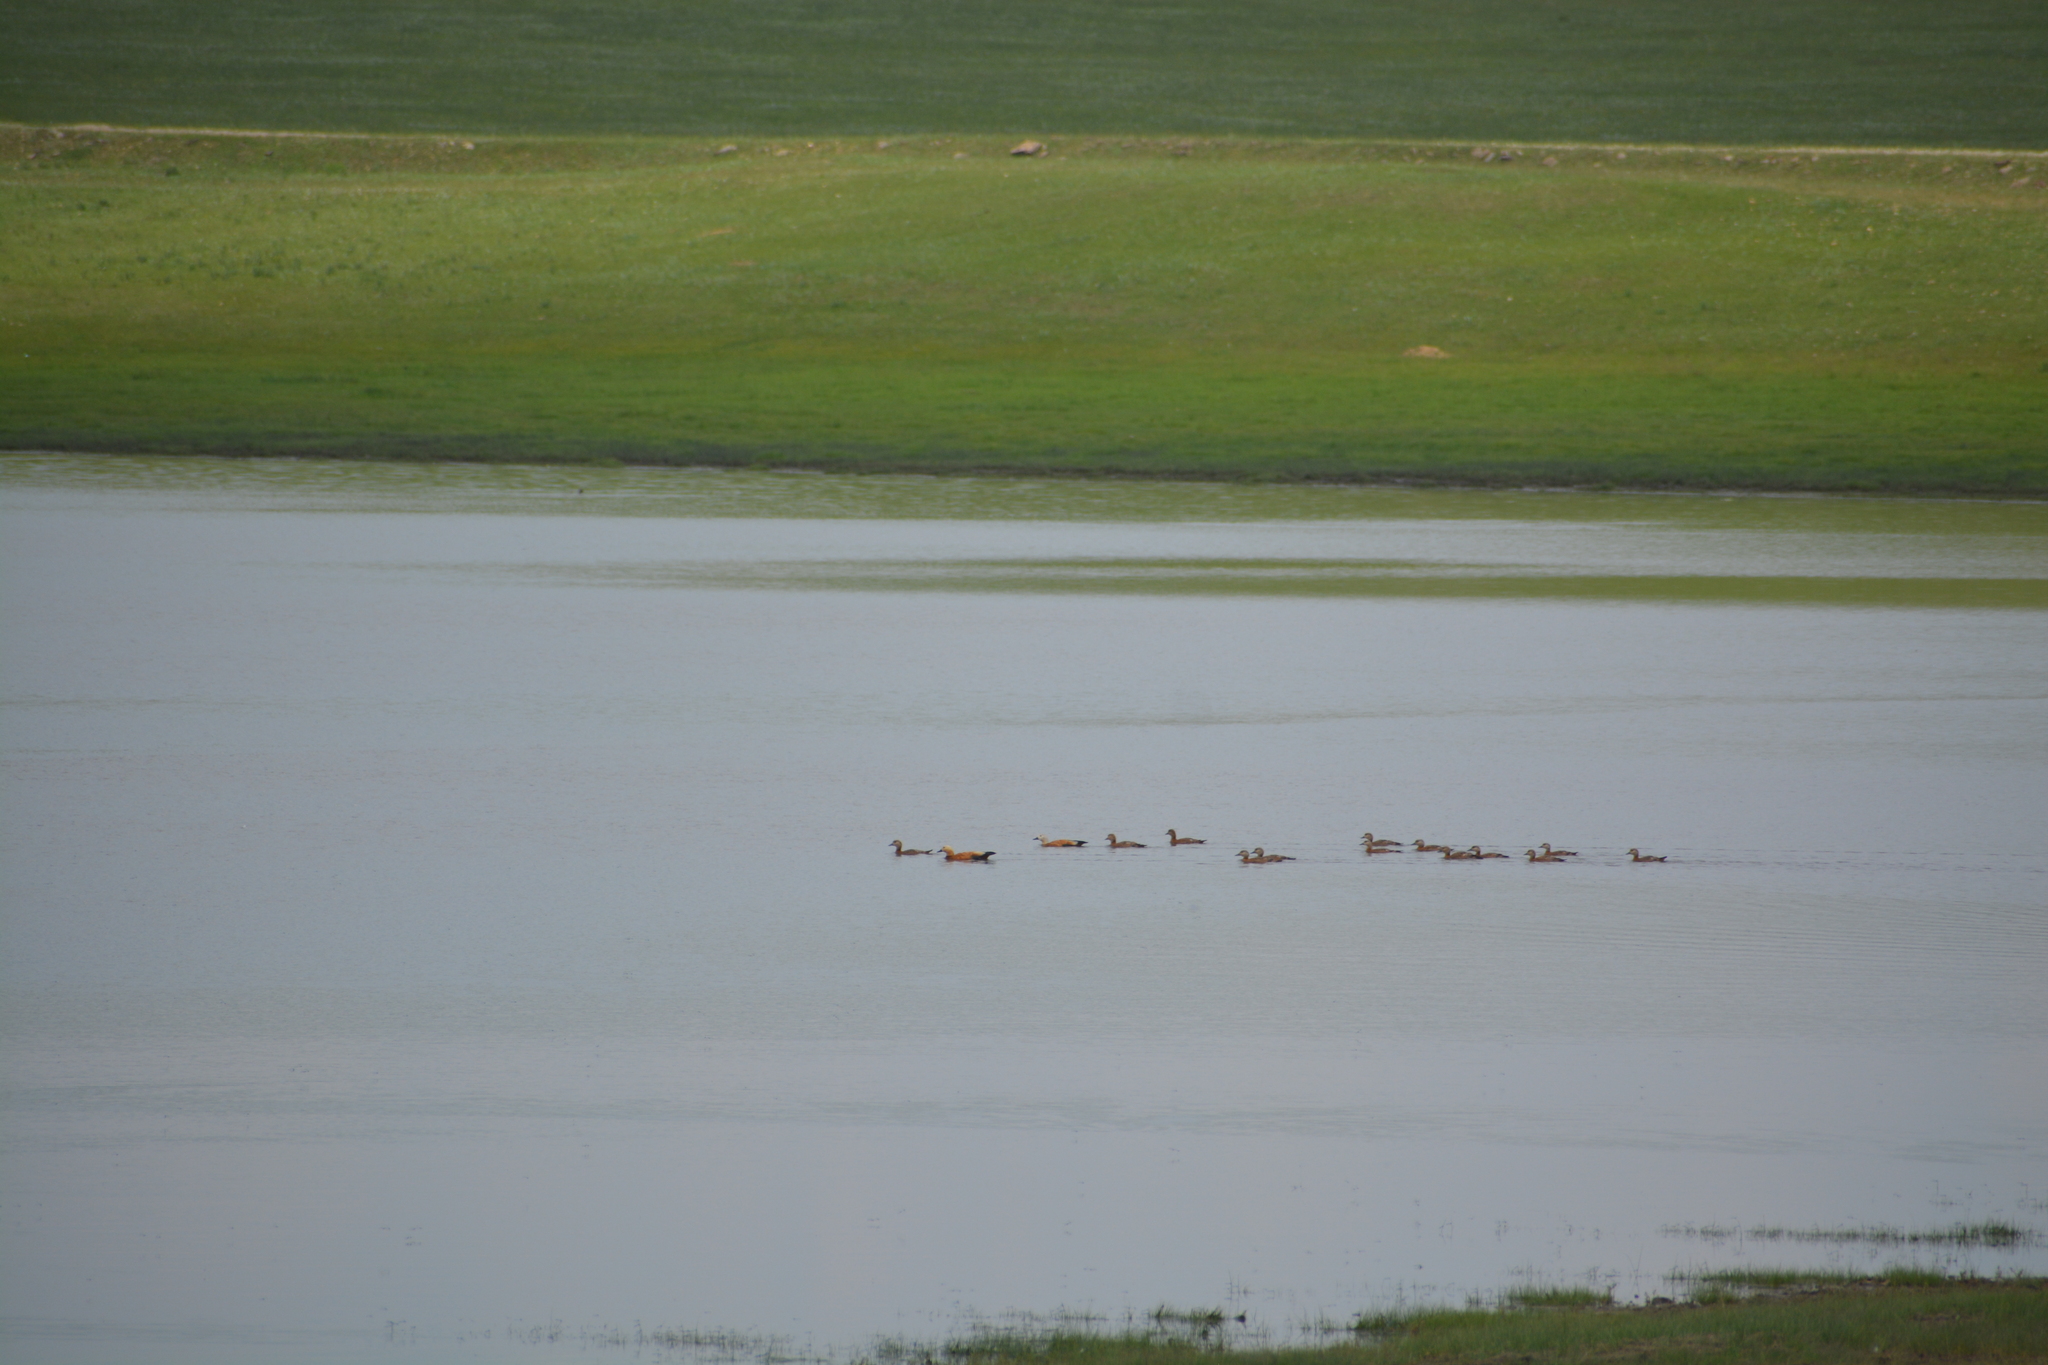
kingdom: Animalia
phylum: Chordata
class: Aves
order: Anseriformes
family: Anatidae
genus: Tadorna
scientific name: Tadorna ferruginea
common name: Ruddy shelduck
